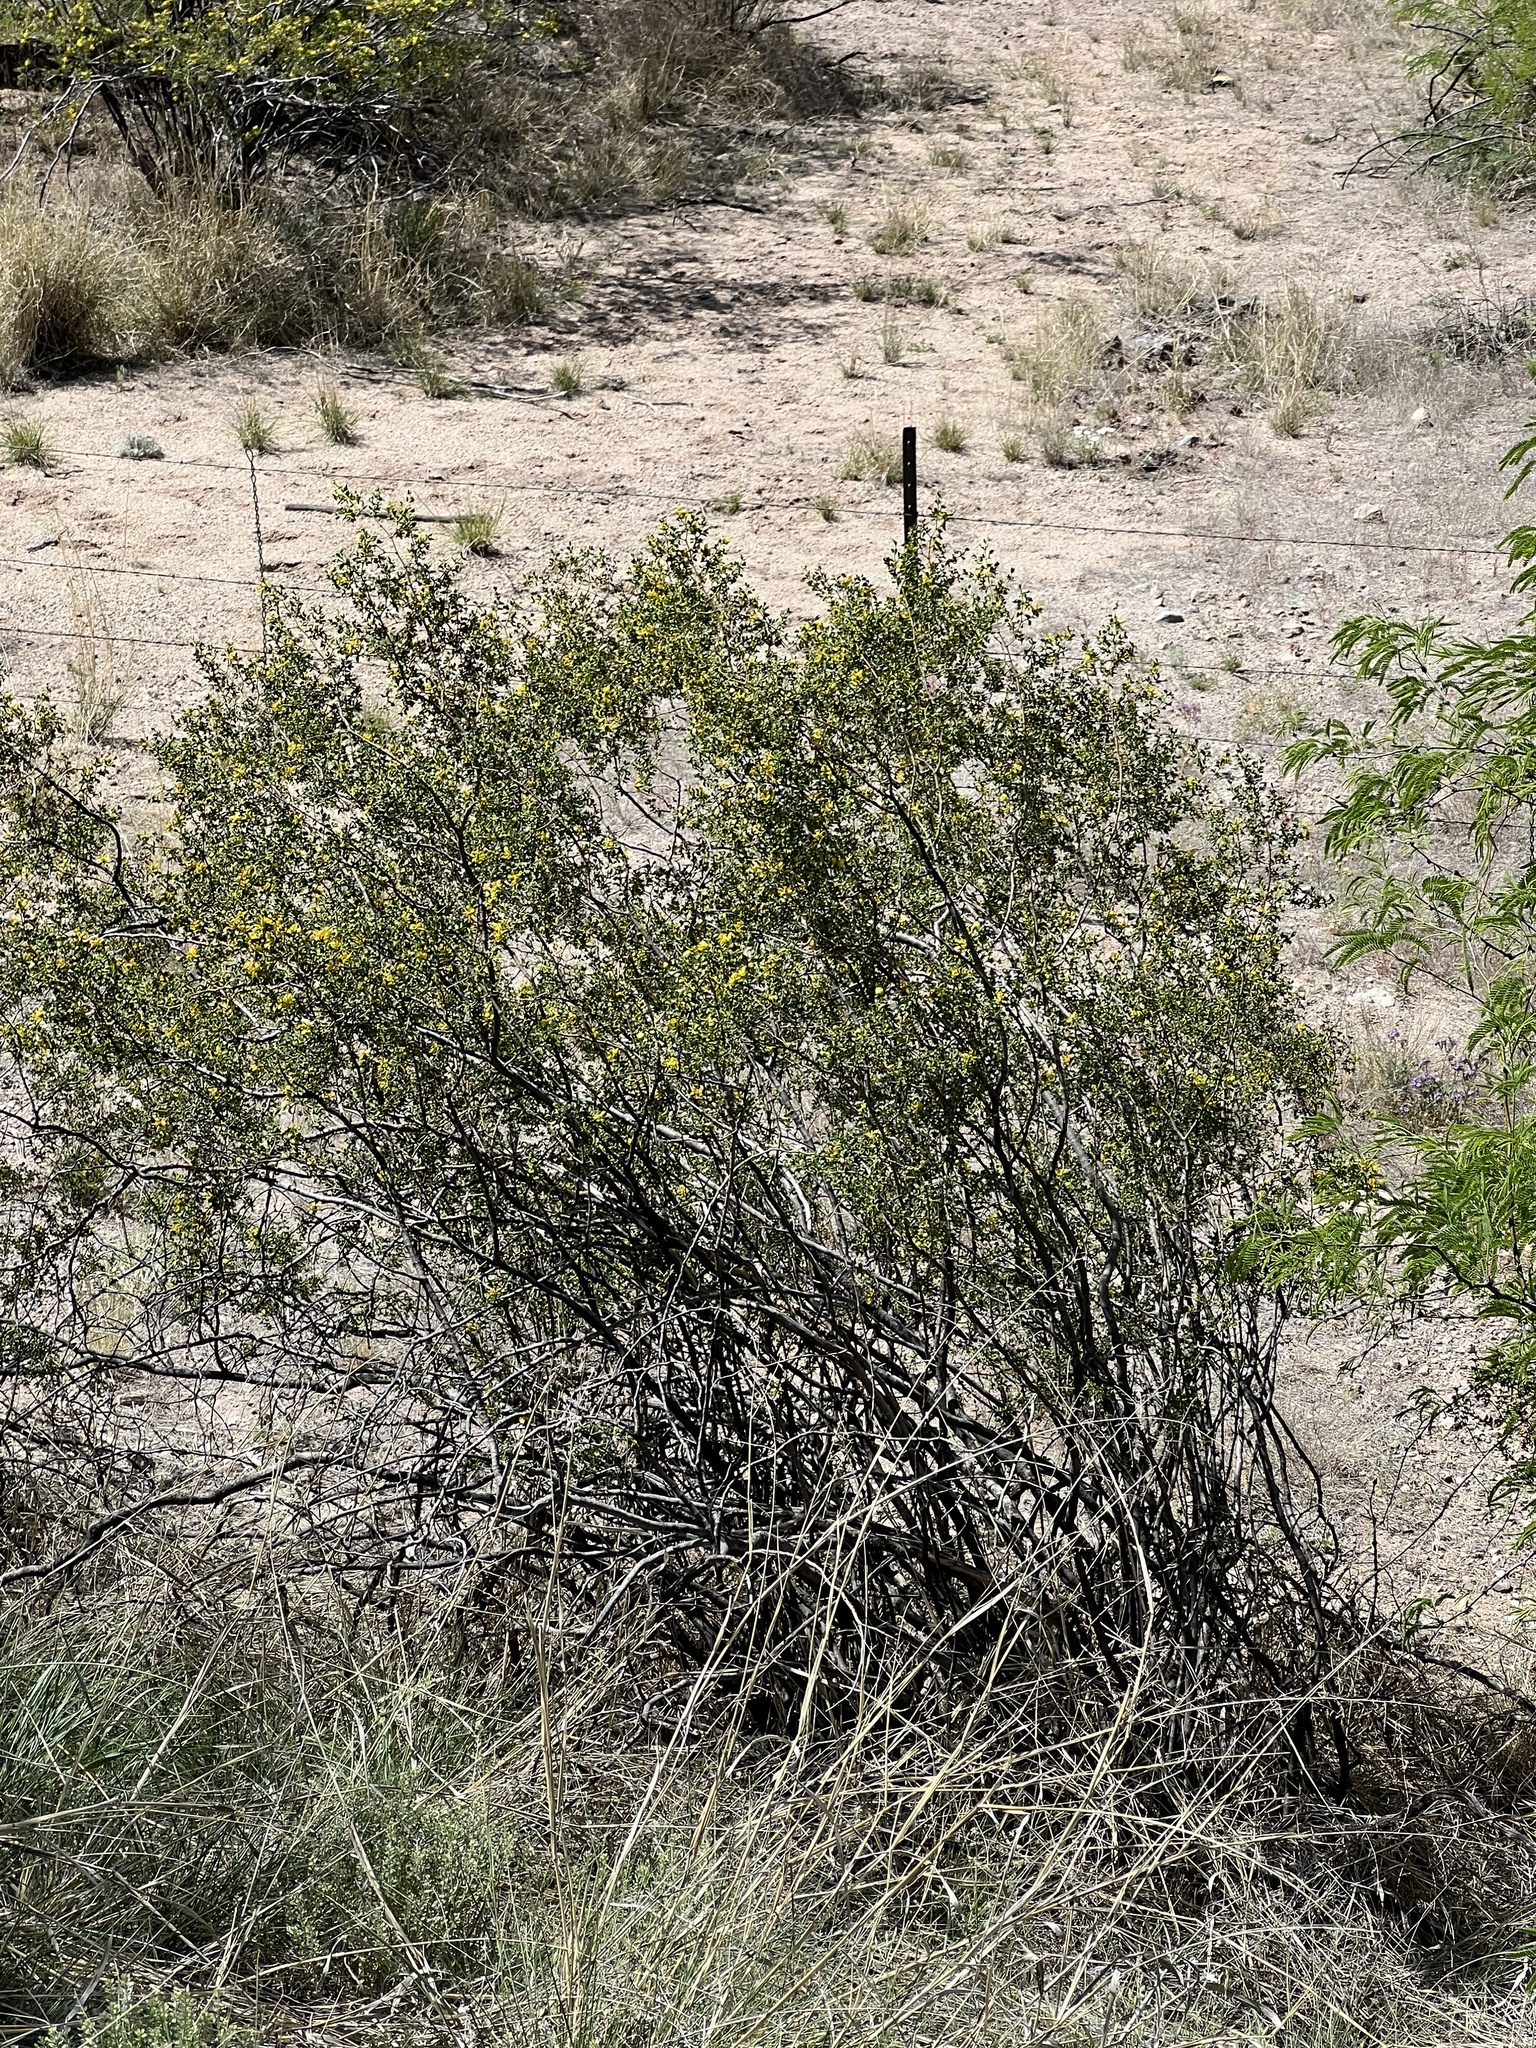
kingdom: Plantae
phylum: Tracheophyta
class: Magnoliopsida
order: Zygophyllales
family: Zygophyllaceae
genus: Larrea
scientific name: Larrea tridentata
